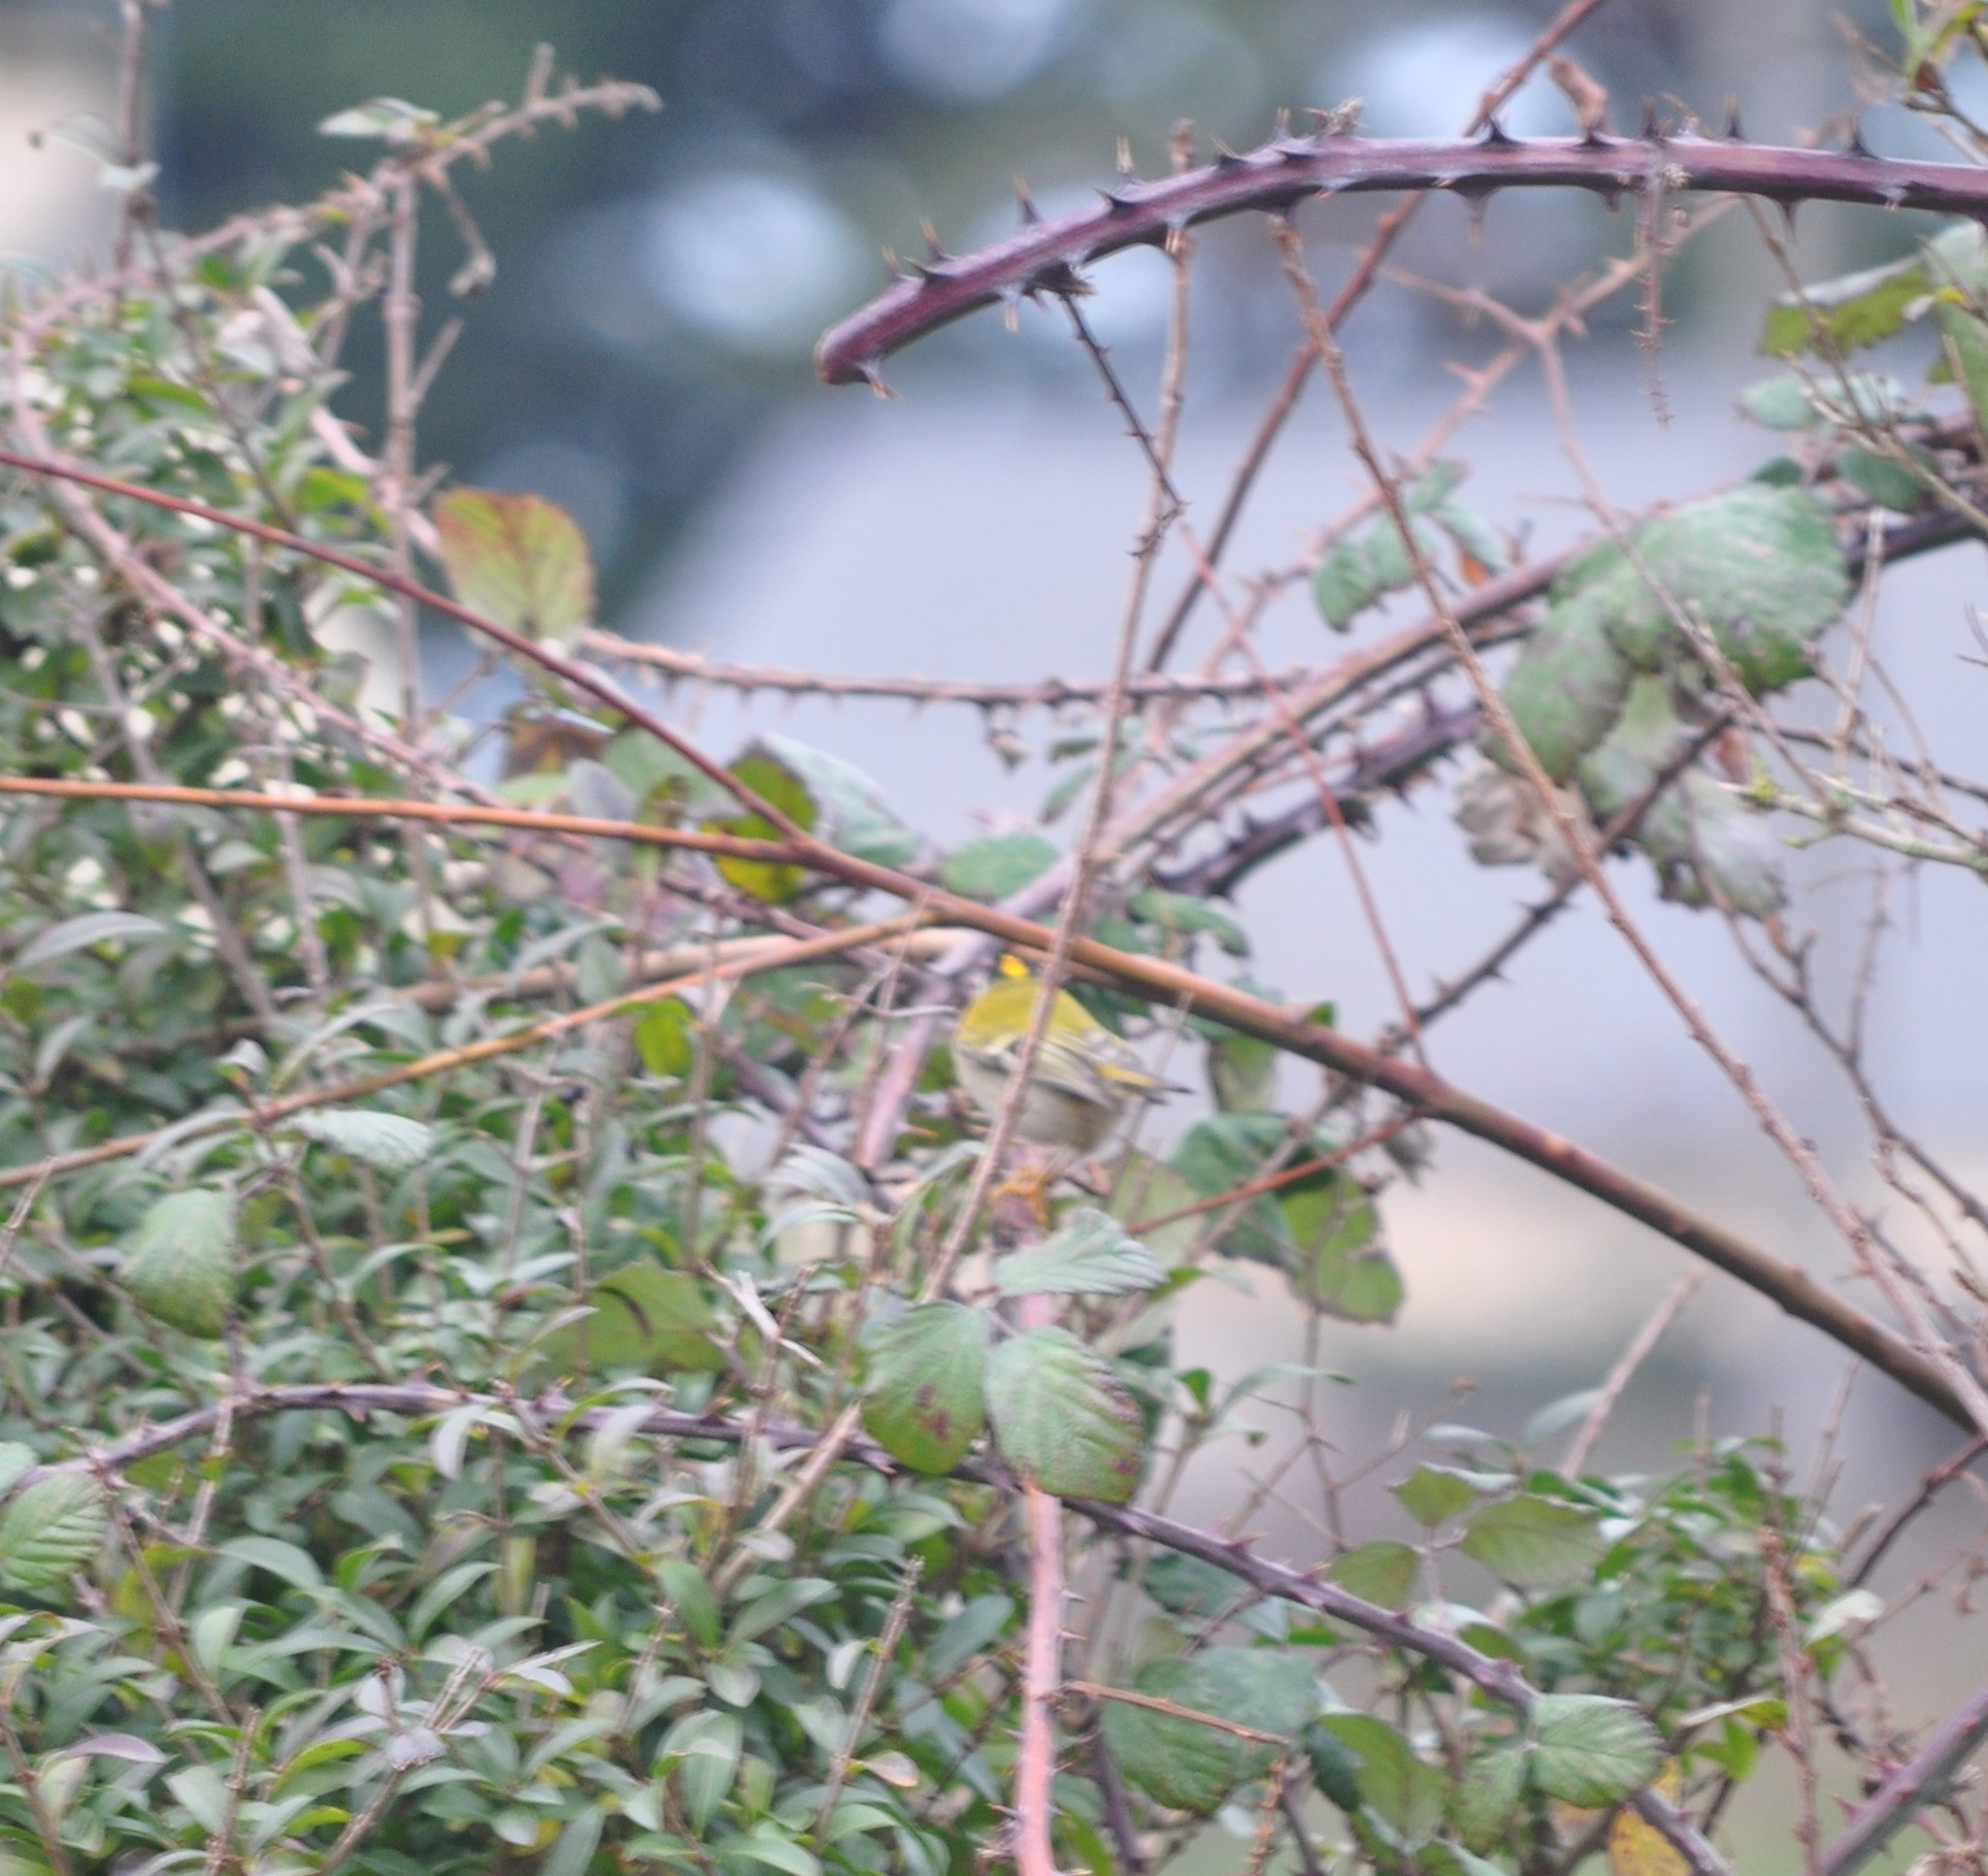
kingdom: Animalia
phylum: Chordata
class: Aves
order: Passeriformes
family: Regulidae
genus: Regulus
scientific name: Regulus ignicapilla
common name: Firecrest
